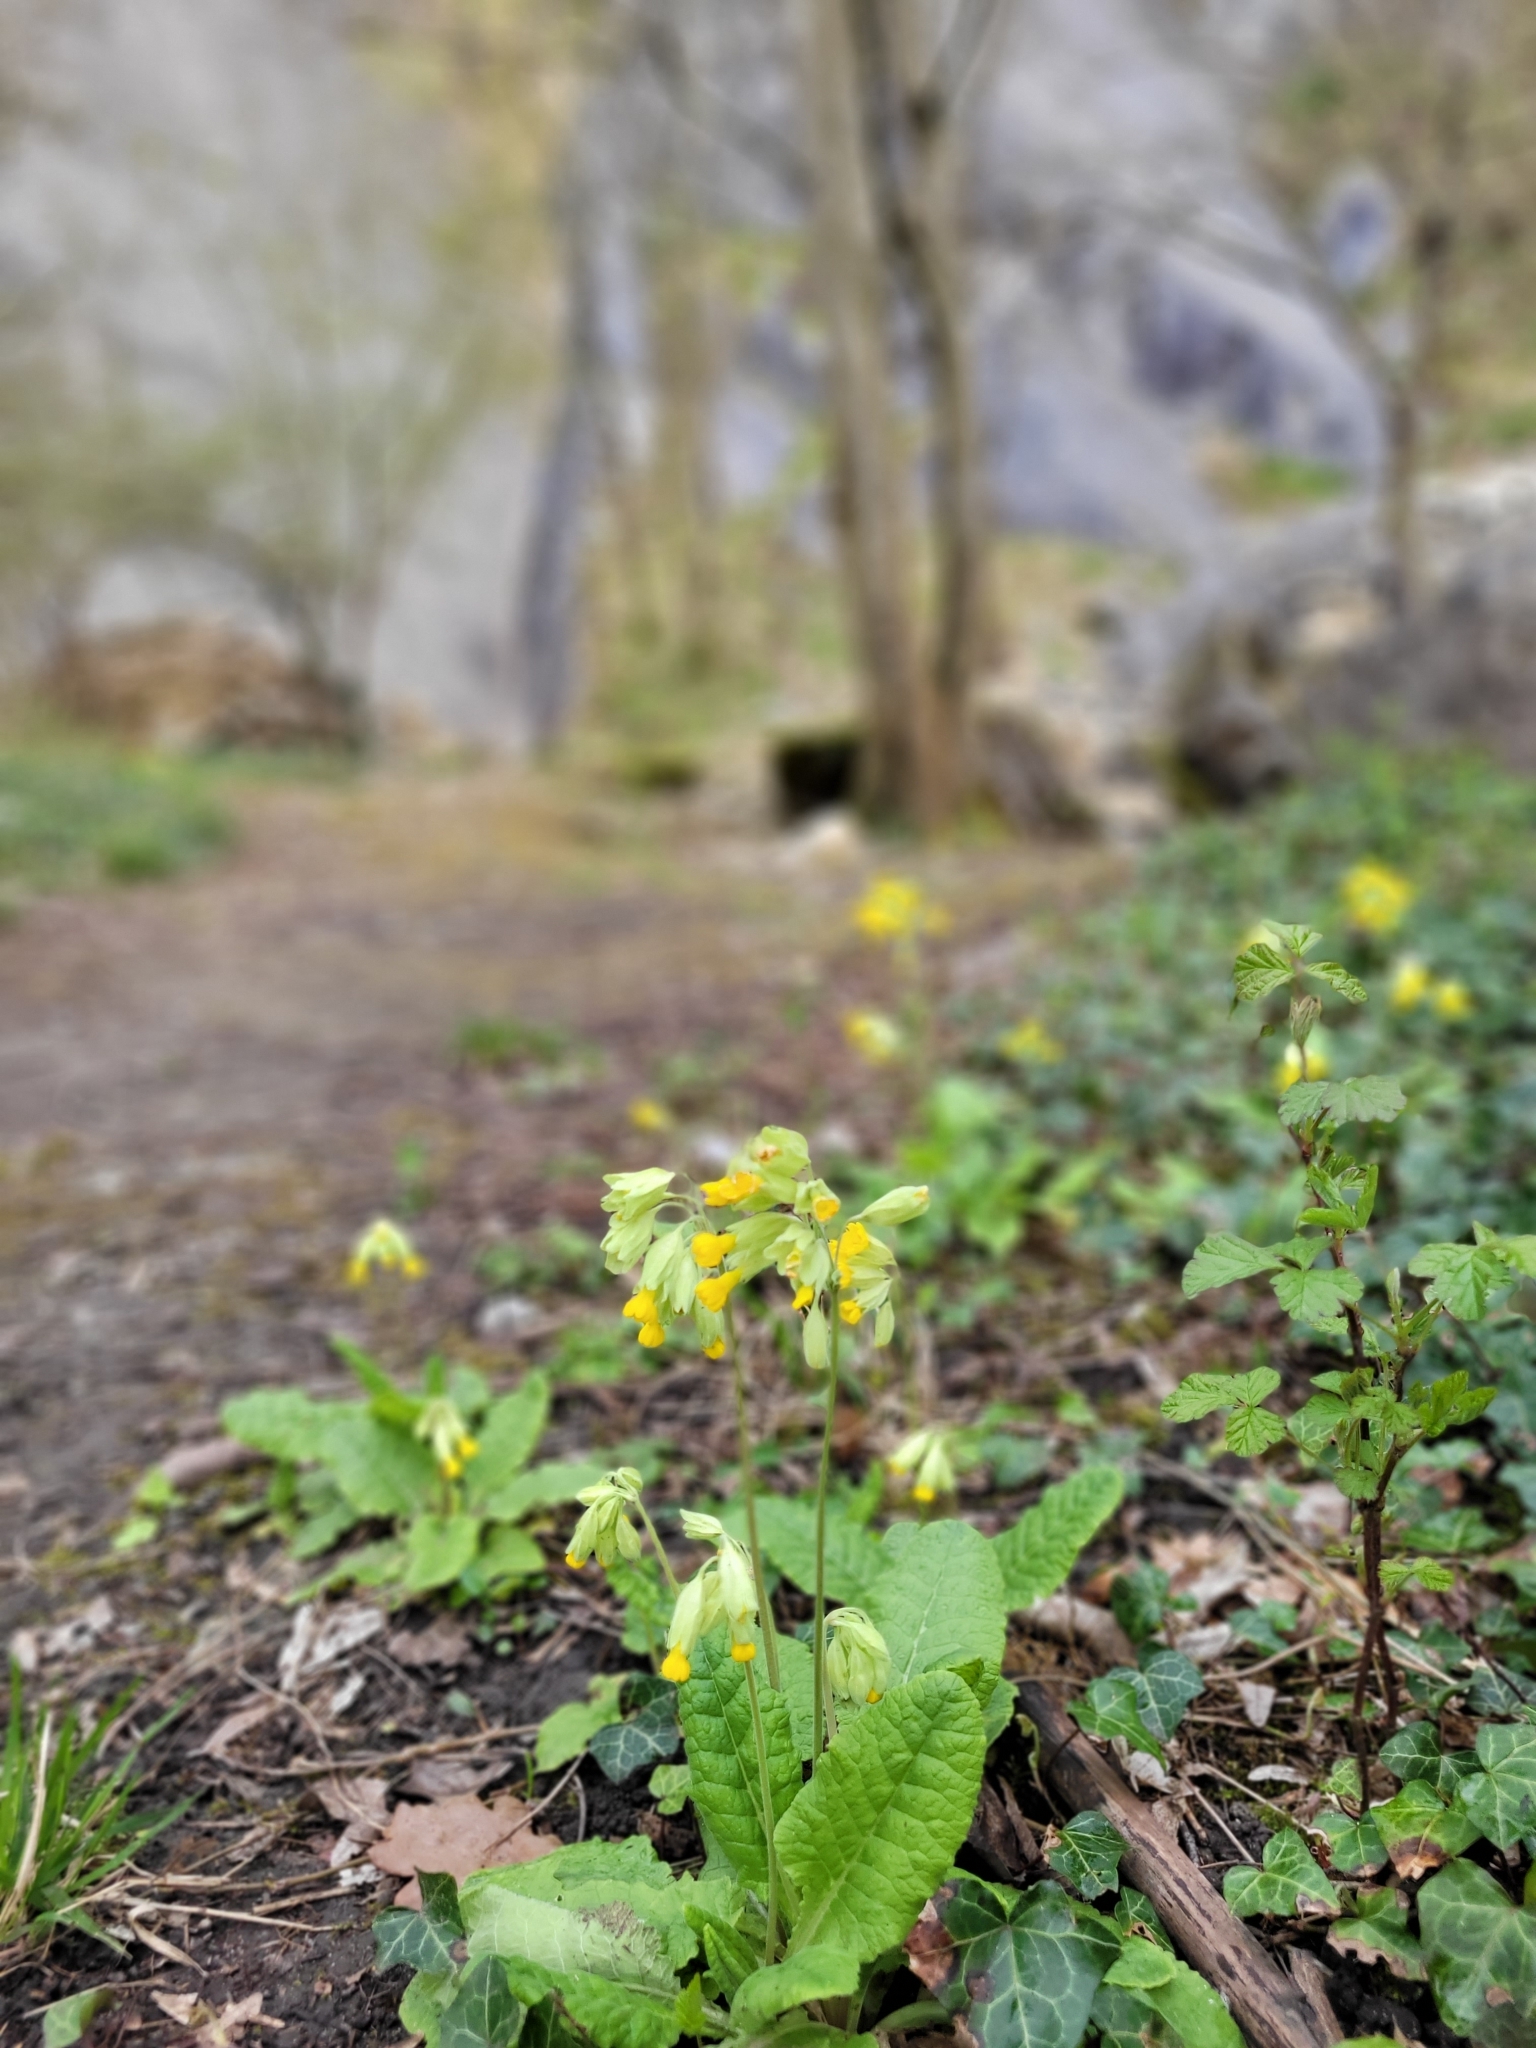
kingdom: Plantae
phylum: Tracheophyta
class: Magnoliopsida
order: Ericales
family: Primulaceae
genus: Primula
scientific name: Primula veris
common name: Cowslip
